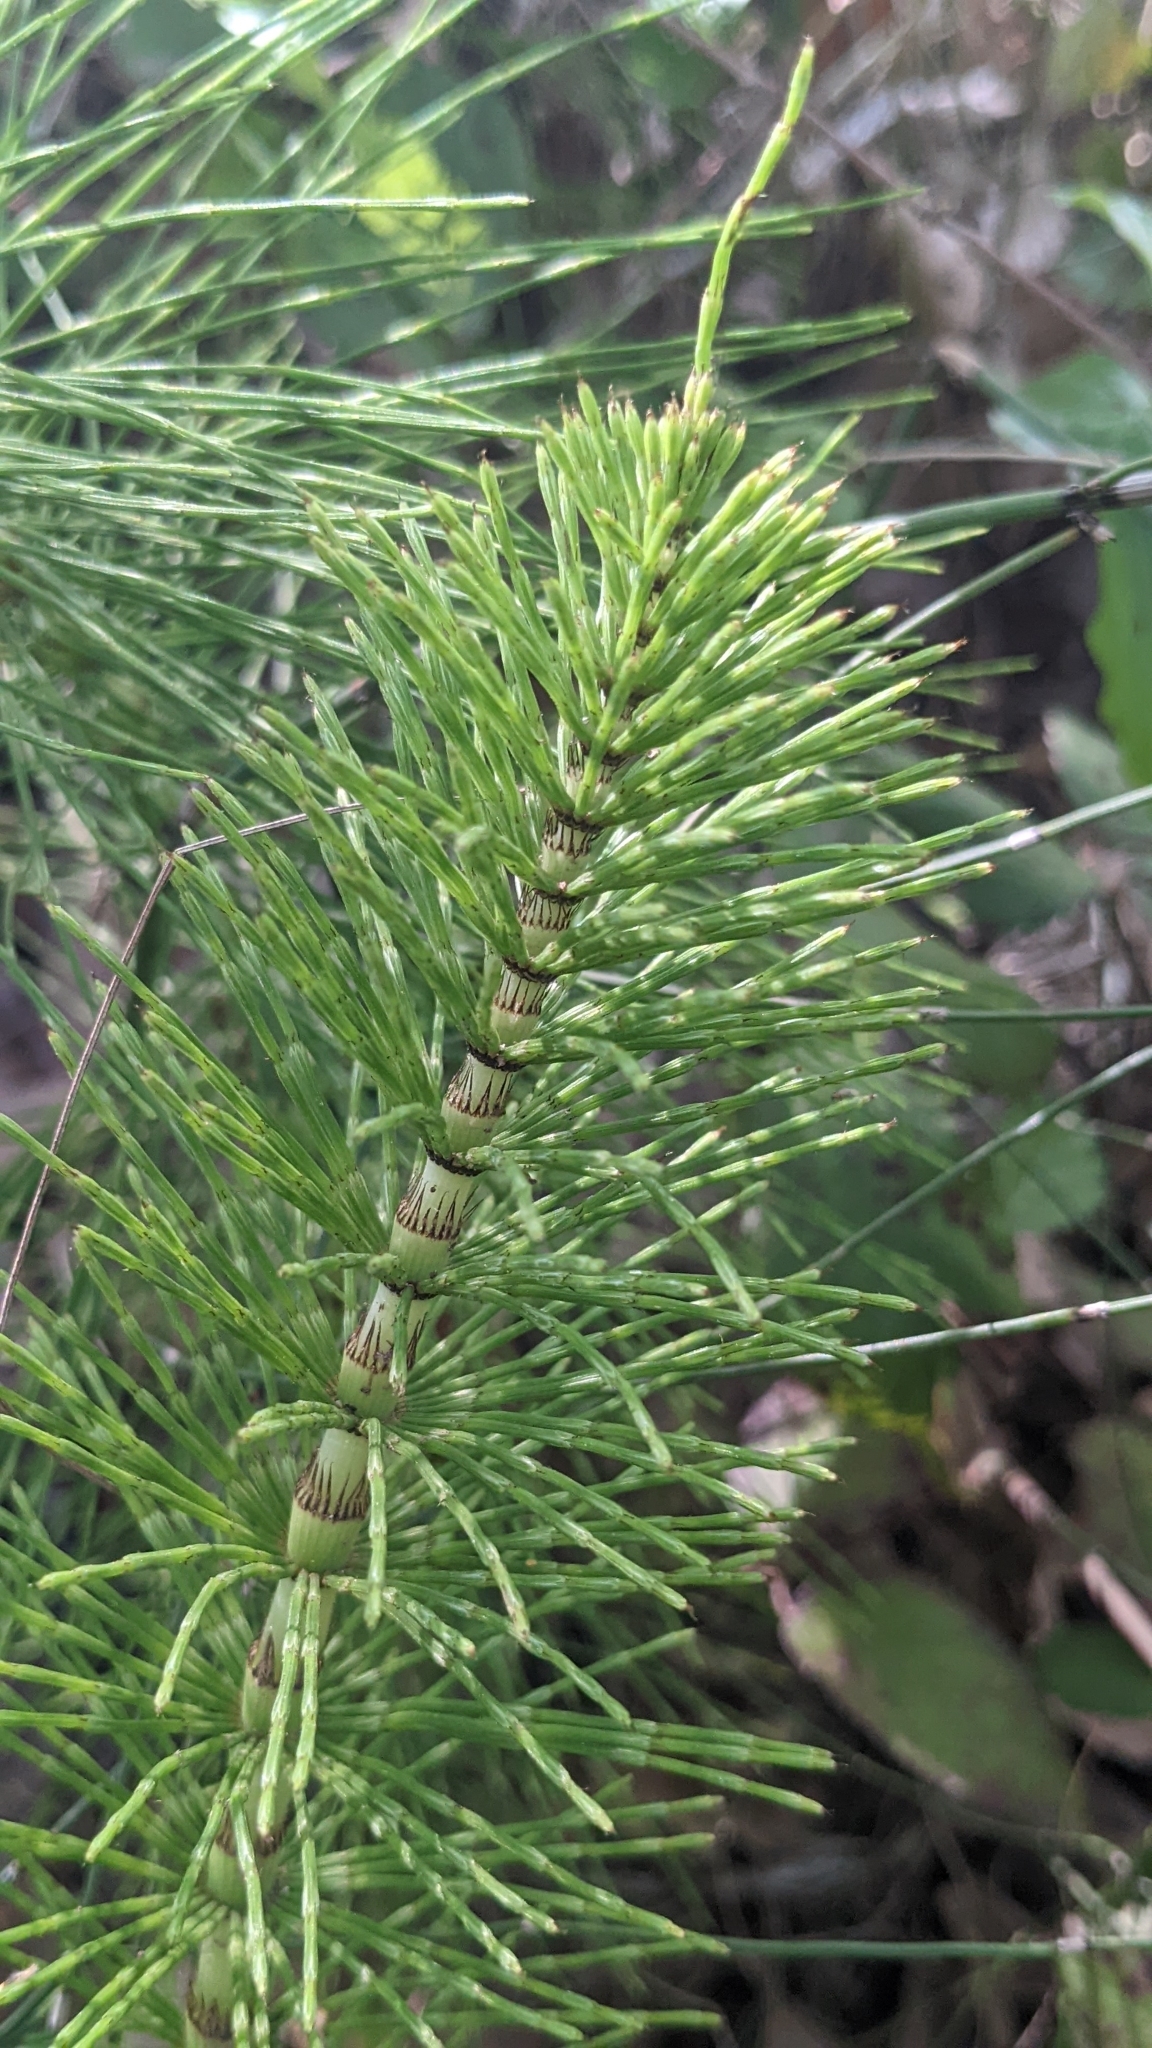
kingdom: Plantae
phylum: Tracheophyta
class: Polypodiopsida
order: Equisetales
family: Equisetaceae
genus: Equisetum
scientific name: Equisetum telmateia
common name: Great horsetail
